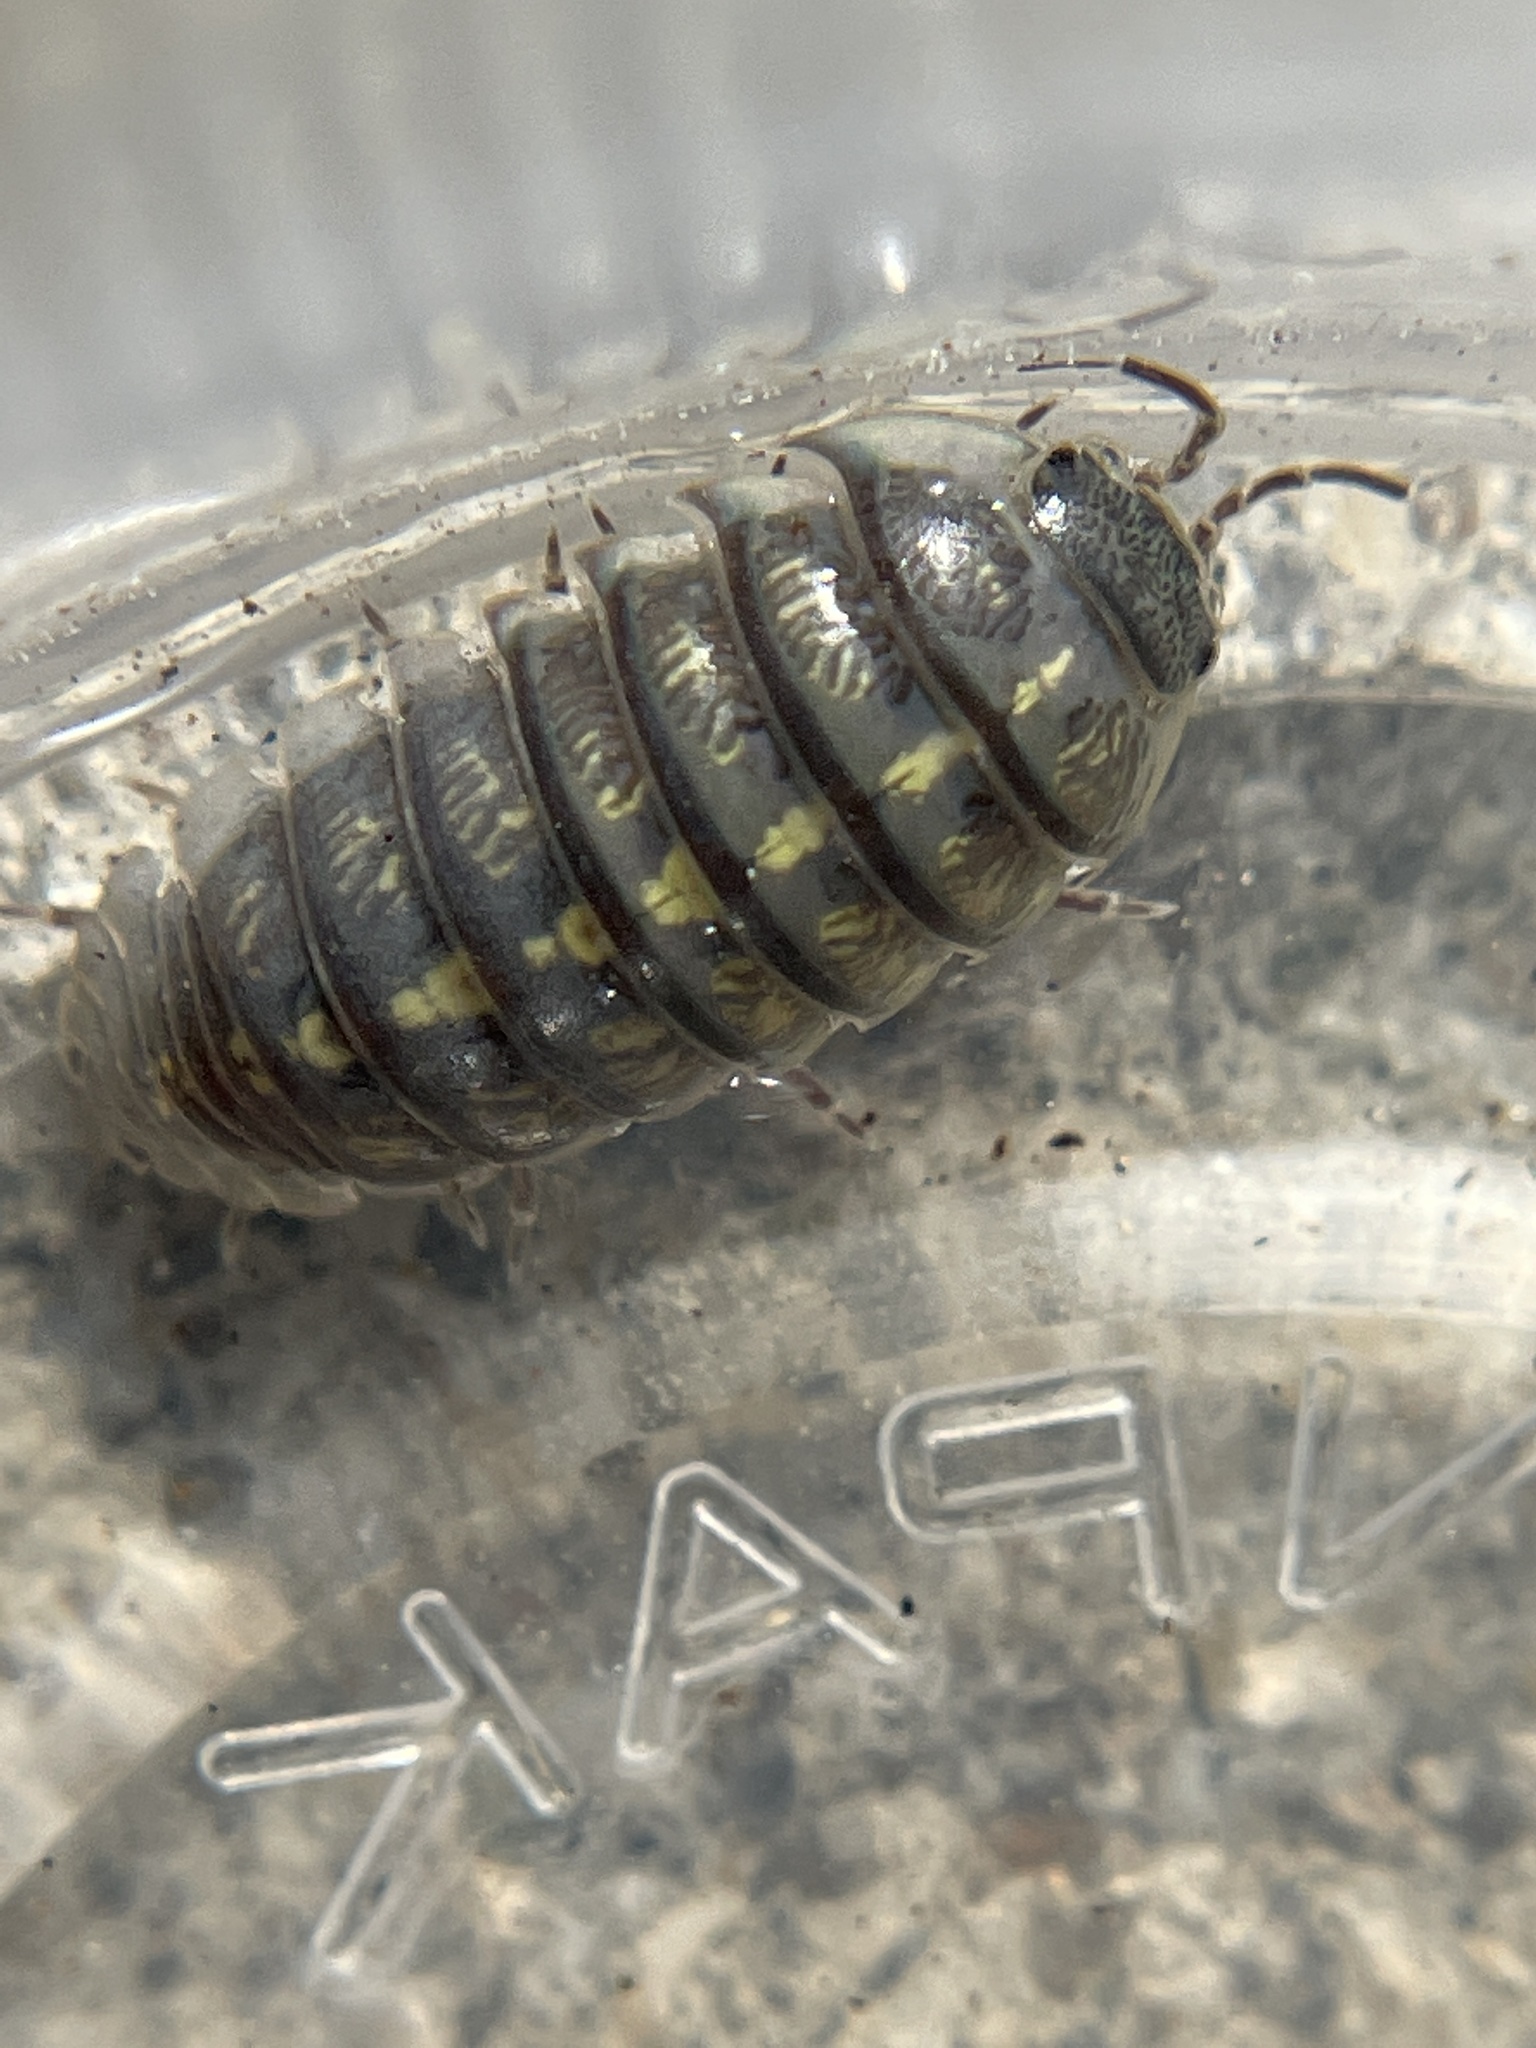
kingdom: Animalia
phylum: Arthropoda
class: Malacostraca
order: Isopoda
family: Armadillidiidae
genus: Armadillidium
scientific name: Armadillidium vulgare
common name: Common pill woodlouse
